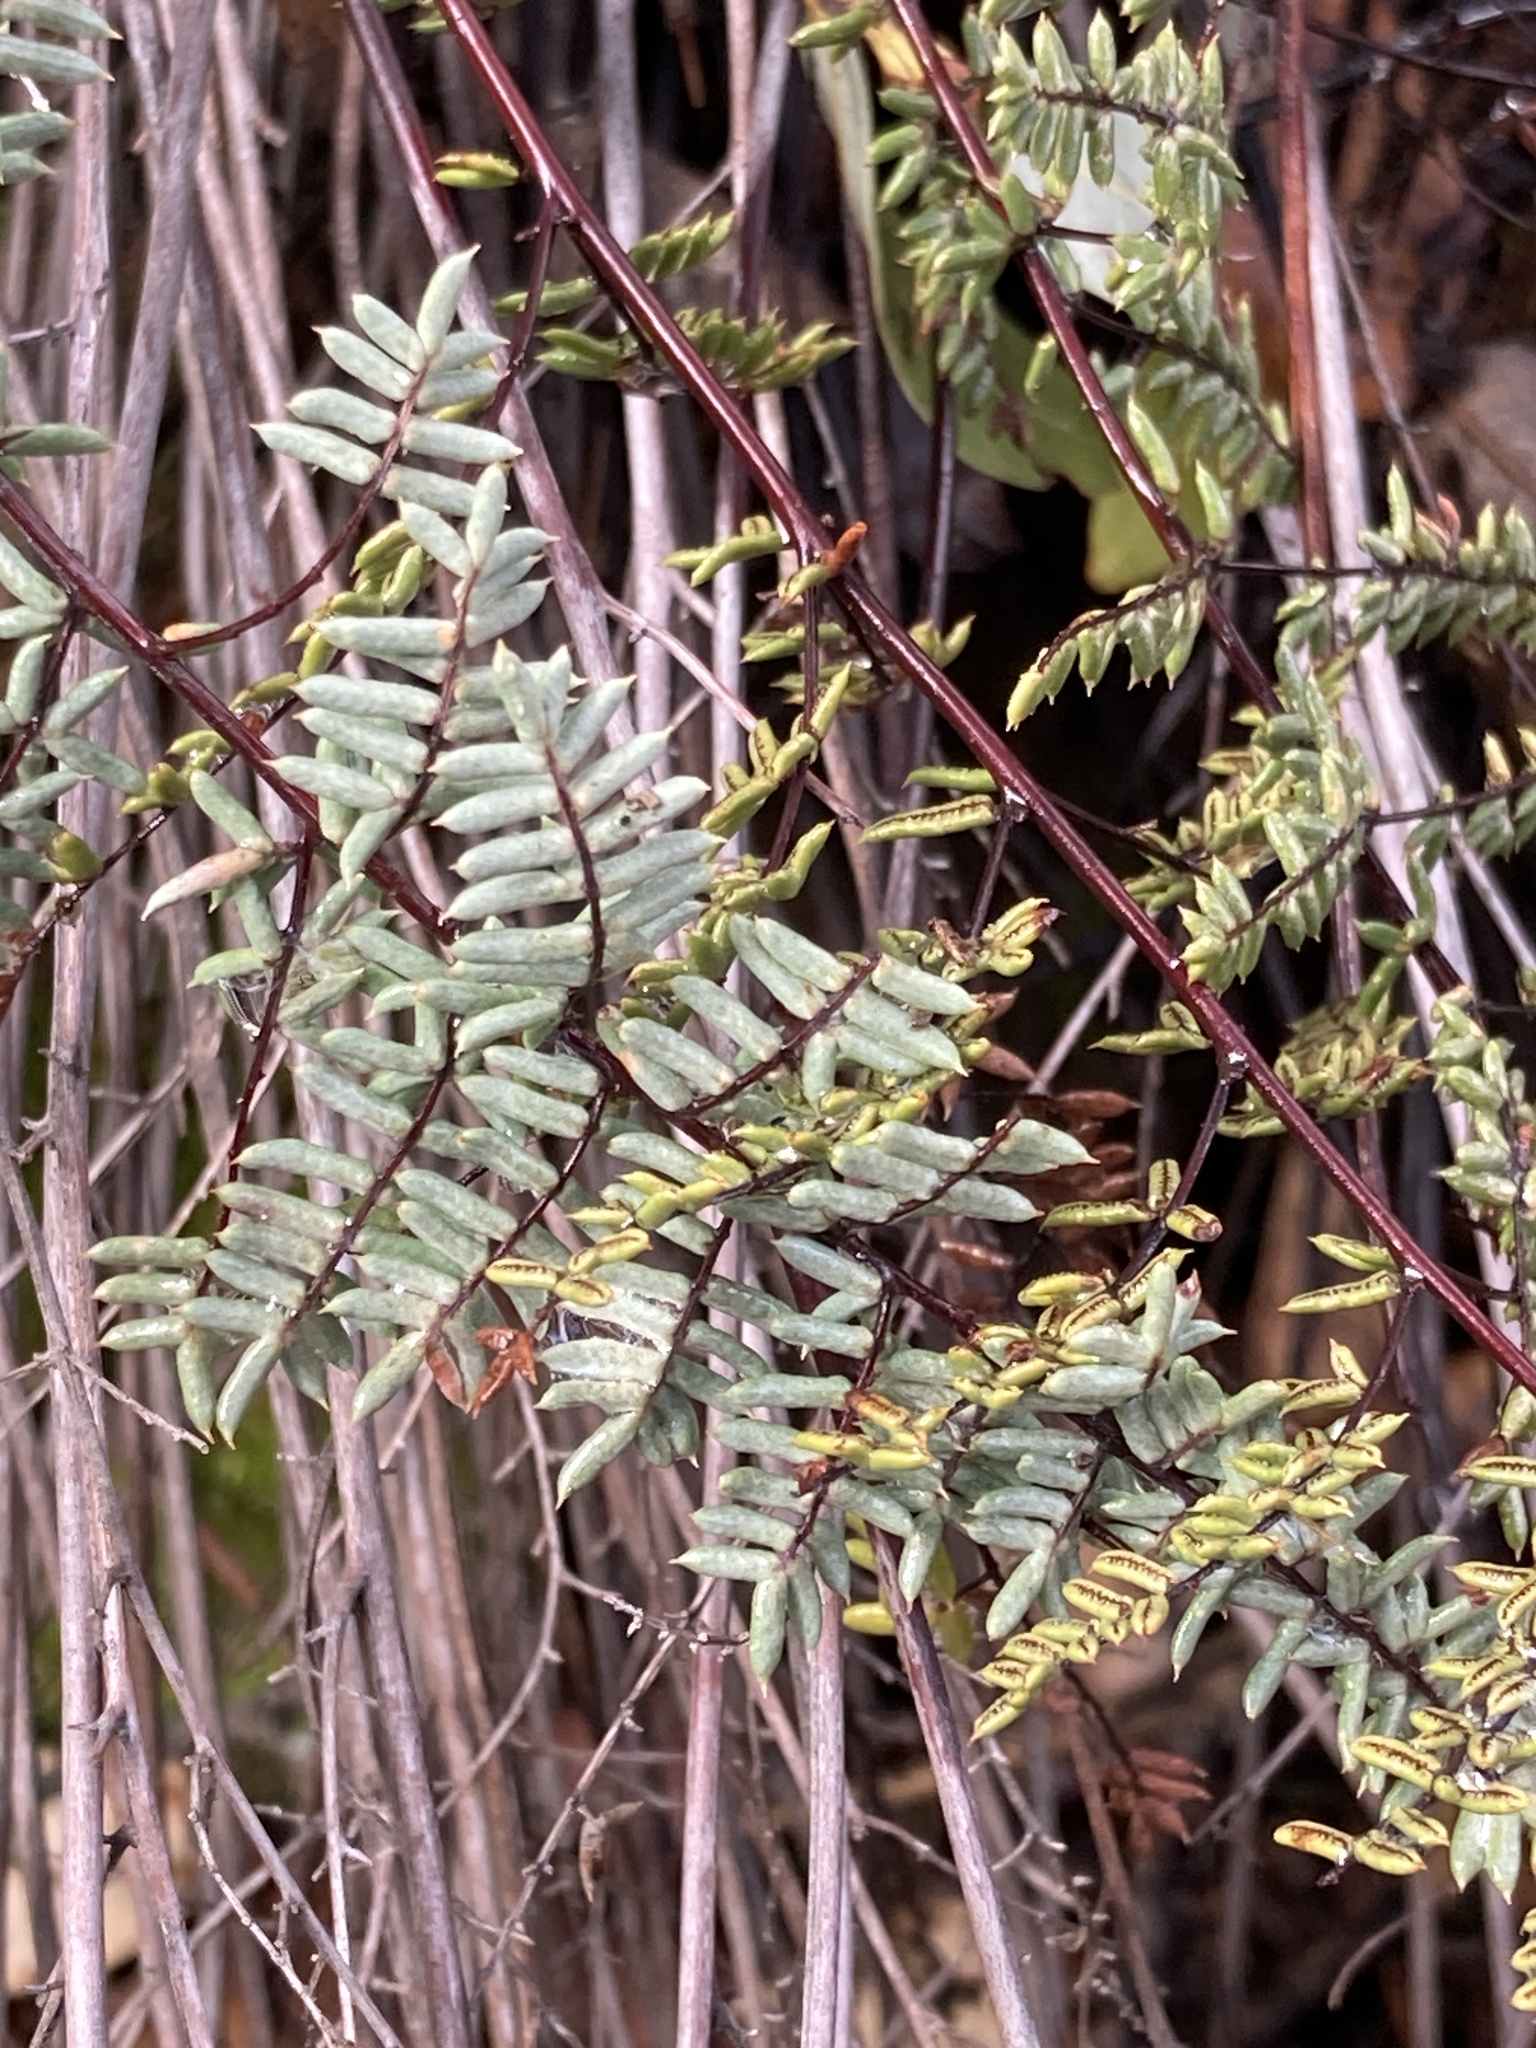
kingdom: Plantae
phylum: Tracheophyta
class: Polypodiopsida
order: Polypodiales
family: Pteridaceae
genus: Pellaea
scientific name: Pellaea mucronata
